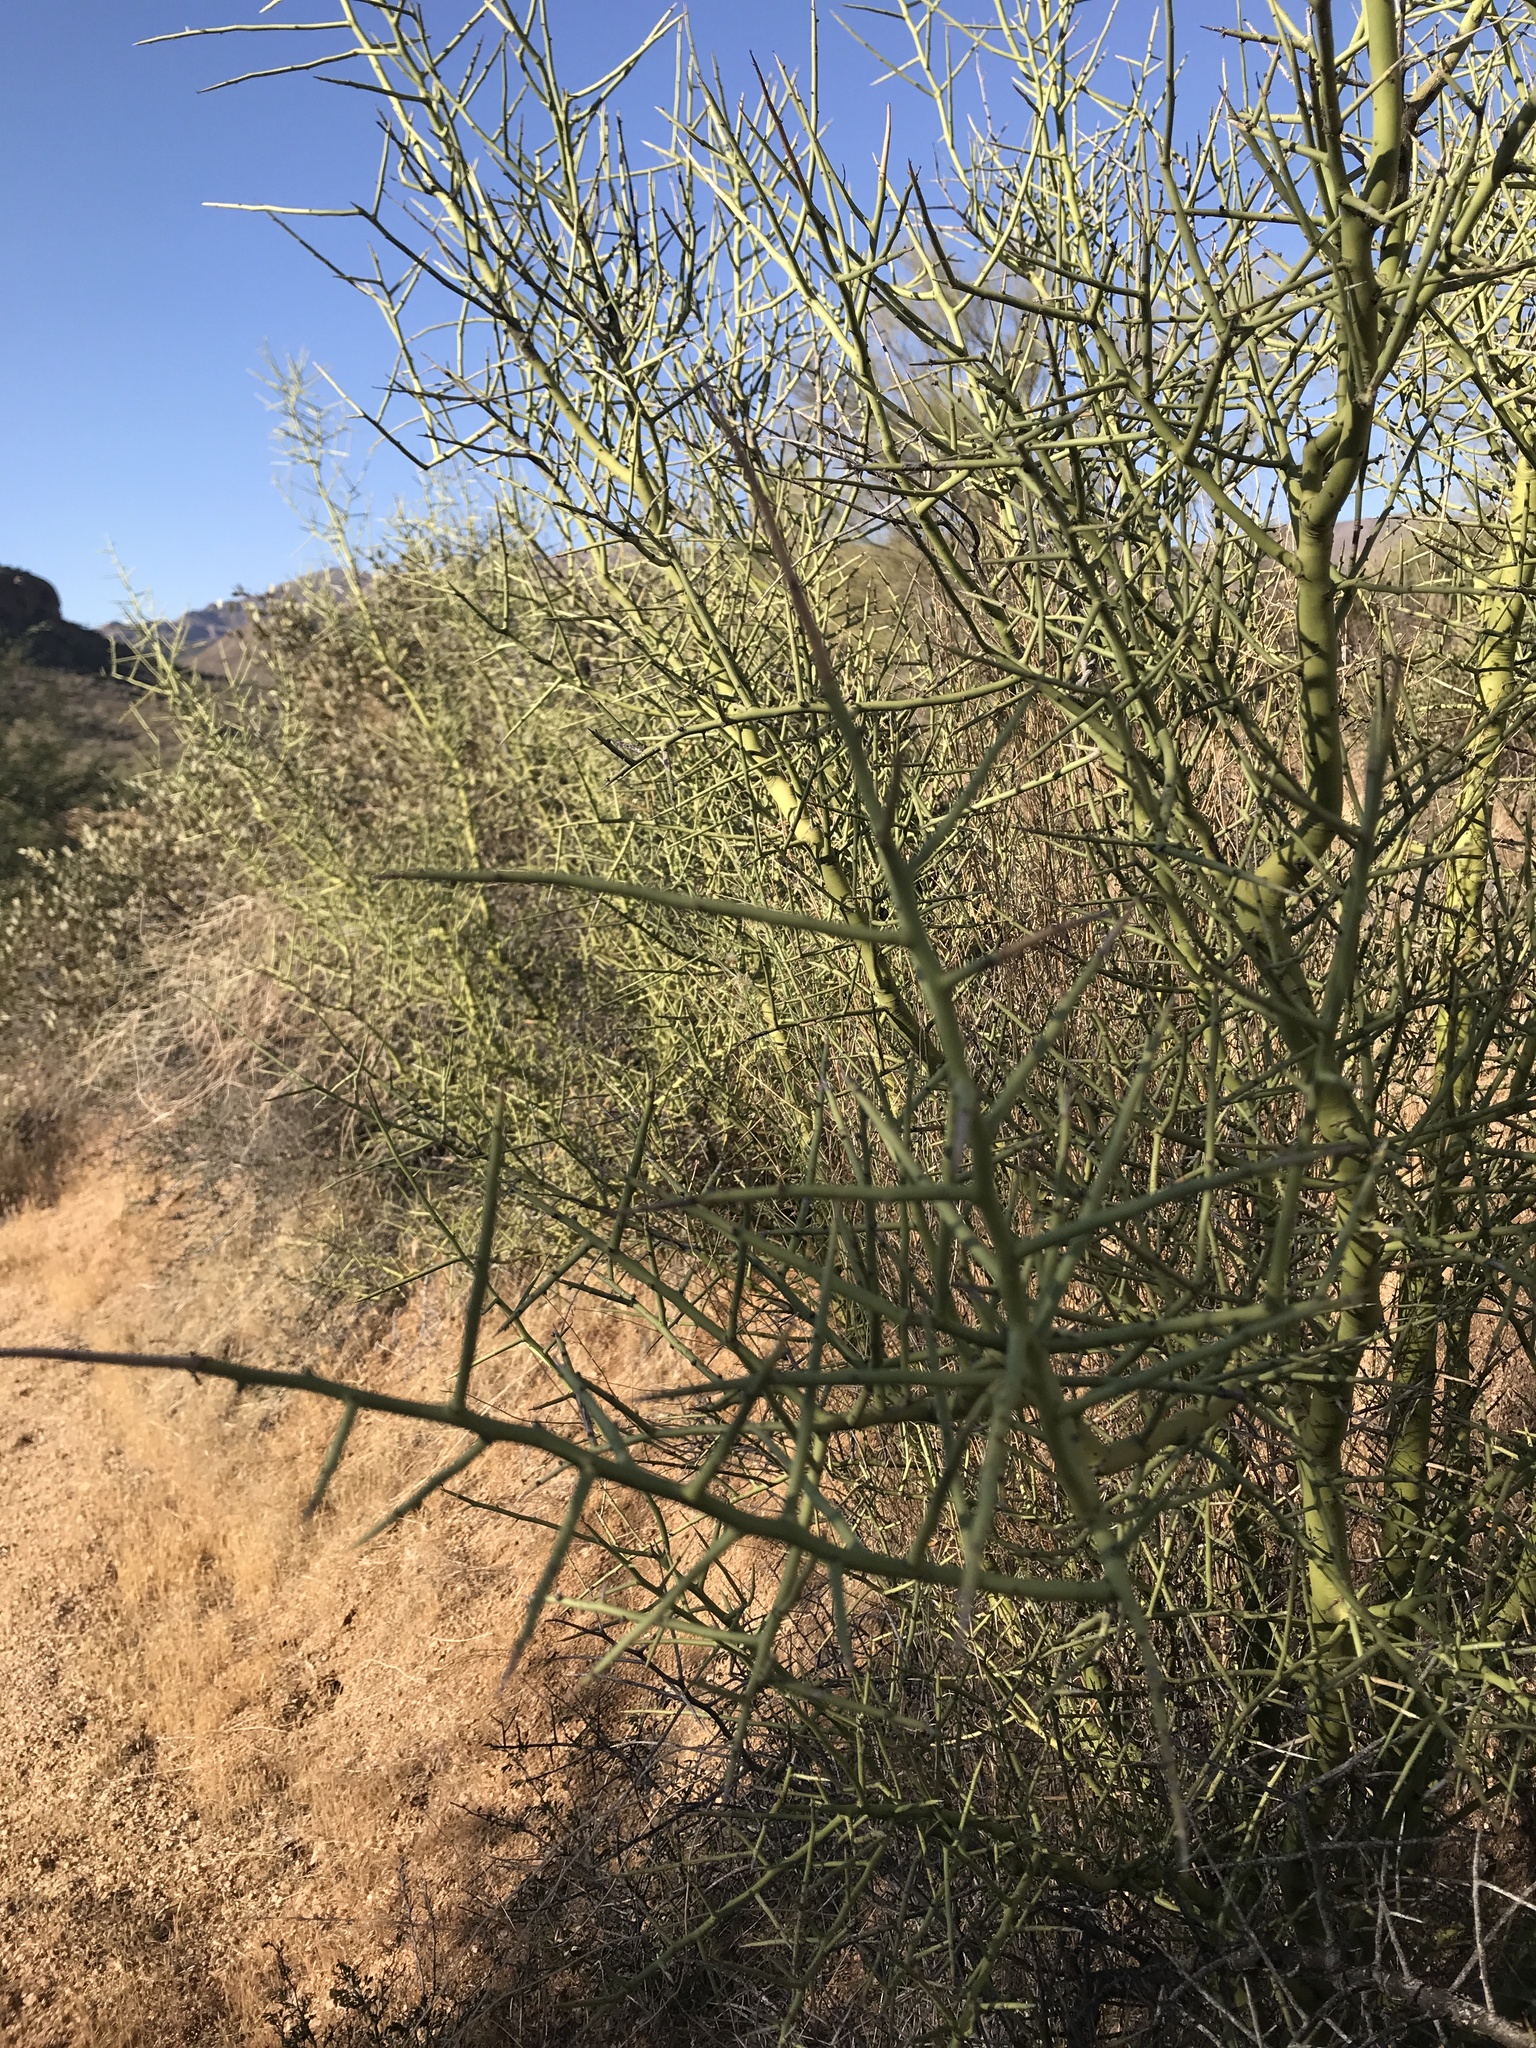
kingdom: Plantae
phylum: Tracheophyta
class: Magnoliopsida
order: Fabales
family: Fabaceae
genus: Parkinsonia
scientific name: Parkinsonia microphylla
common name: Yellow paloverde
